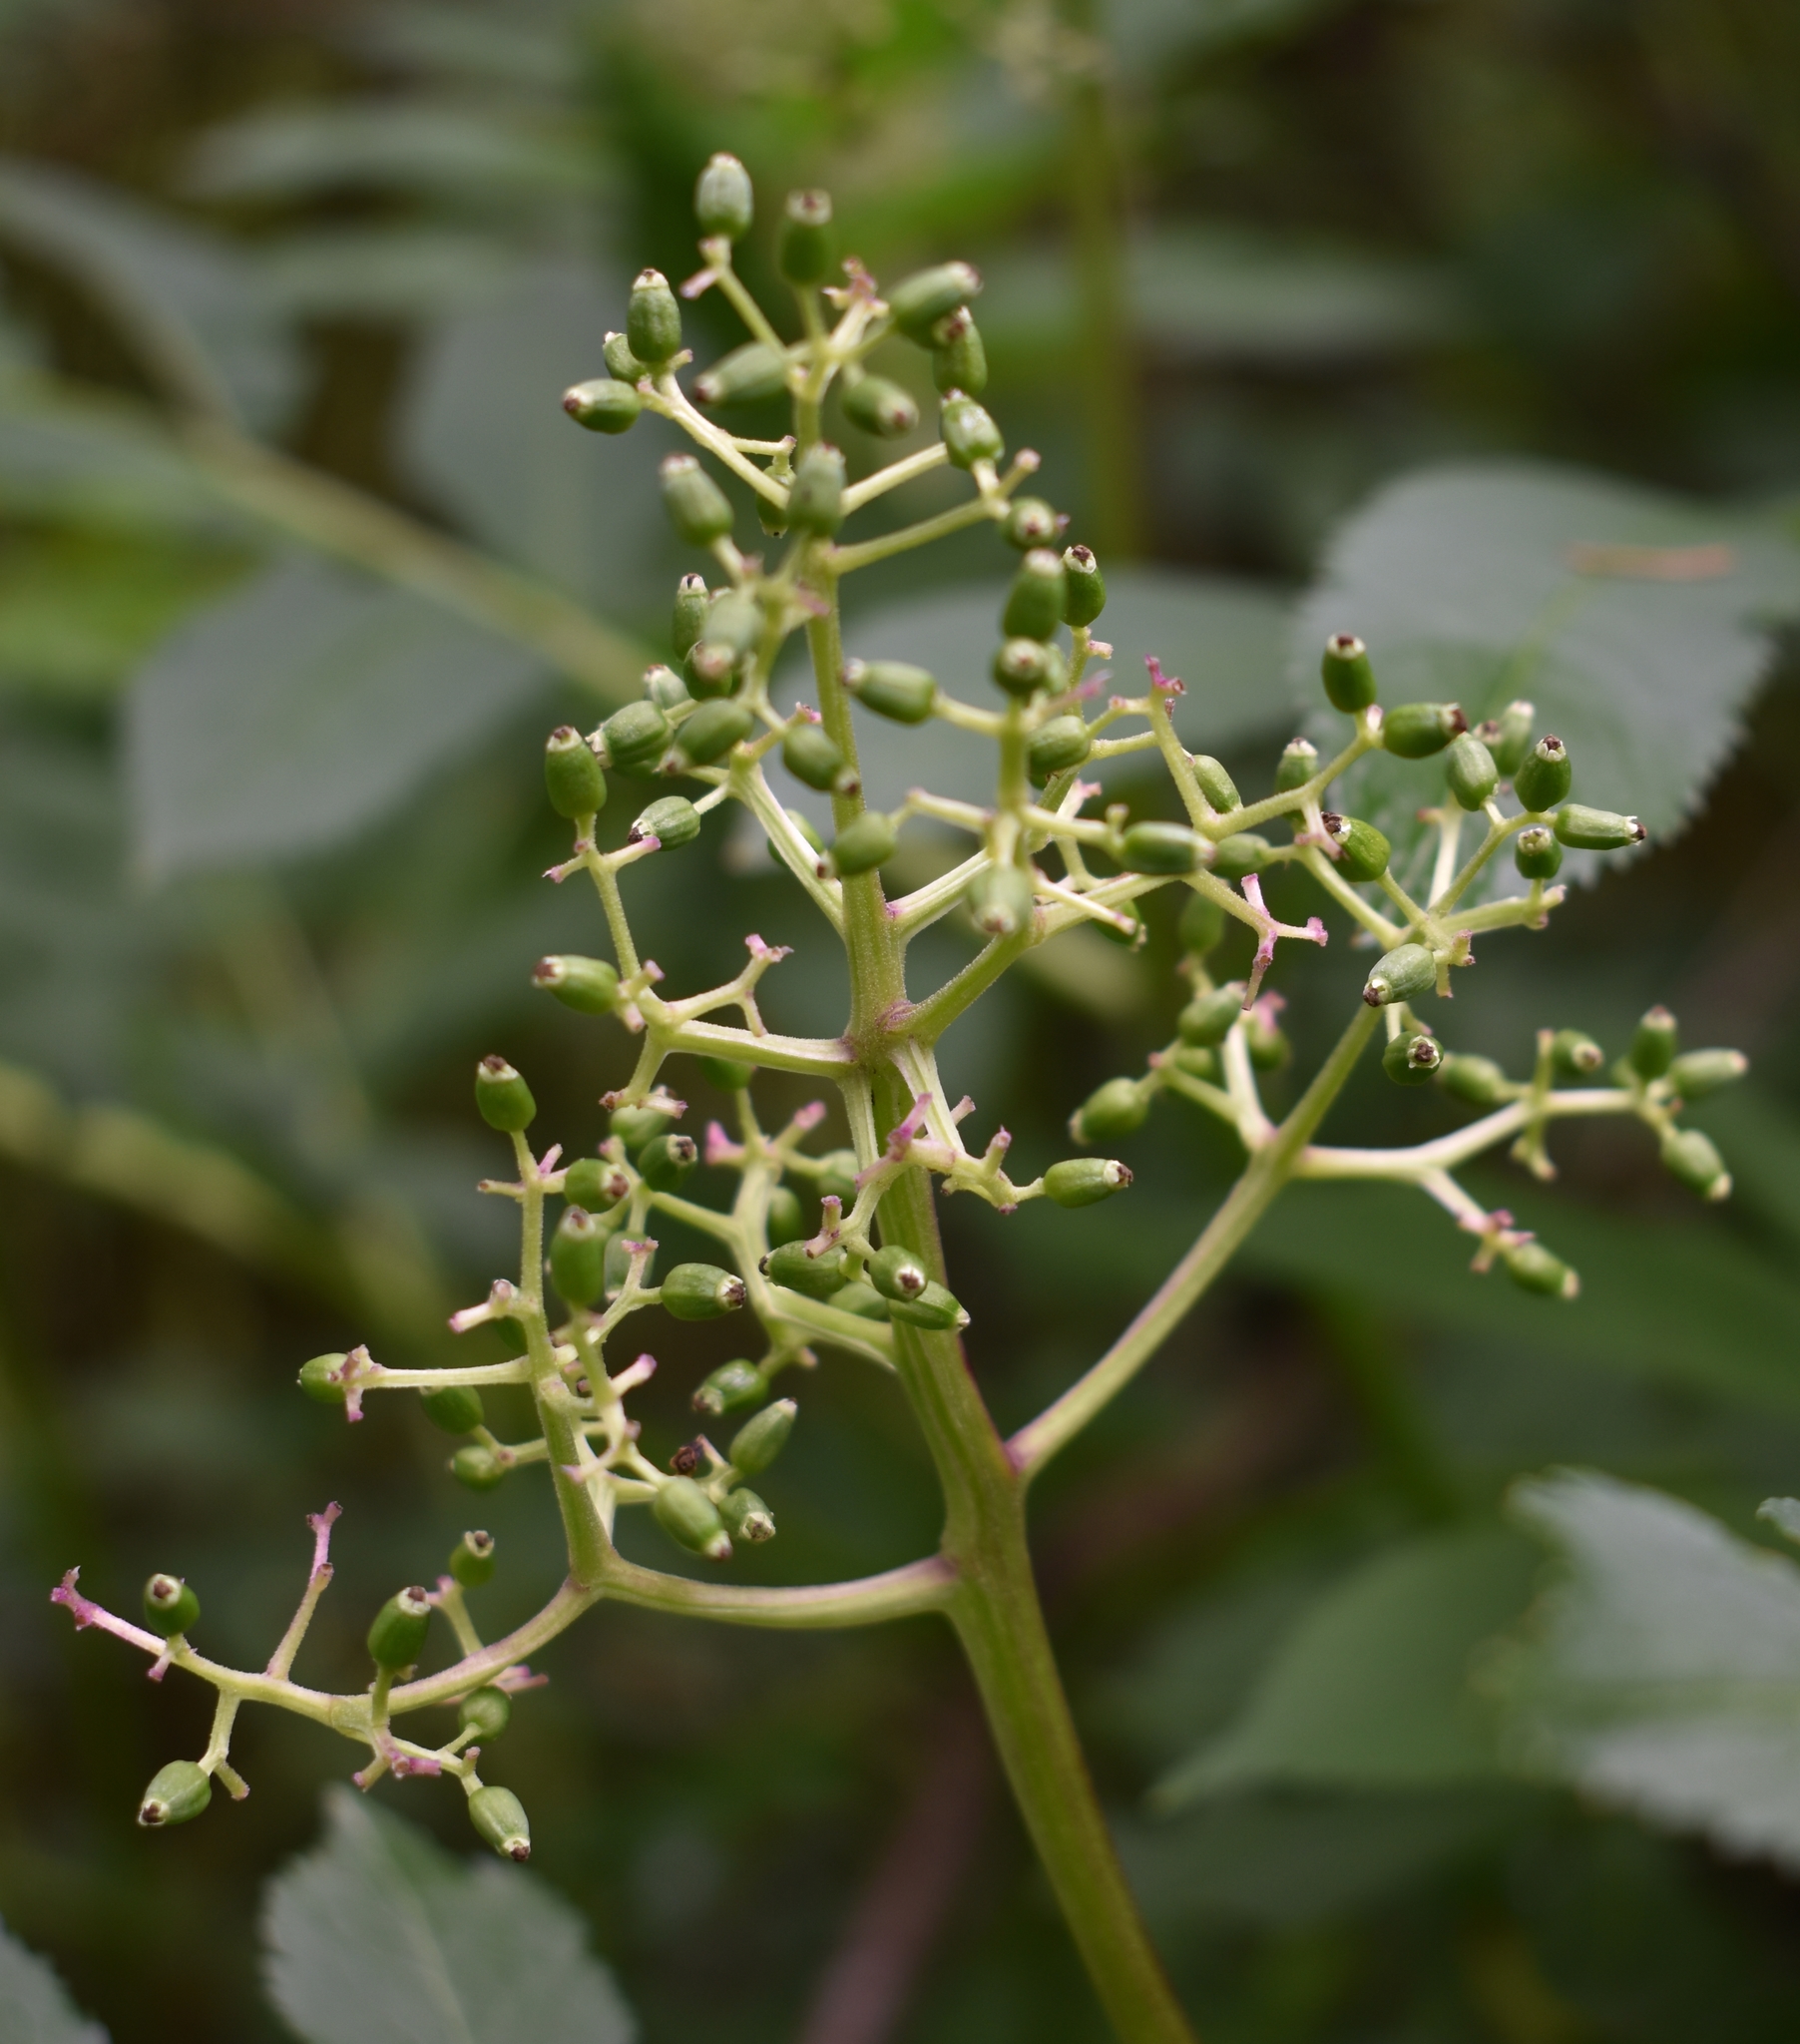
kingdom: Plantae
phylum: Tracheophyta
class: Magnoliopsida
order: Dipsacales
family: Viburnaceae
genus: Sambucus
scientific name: Sambucus racemosa
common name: Red-berried elder
